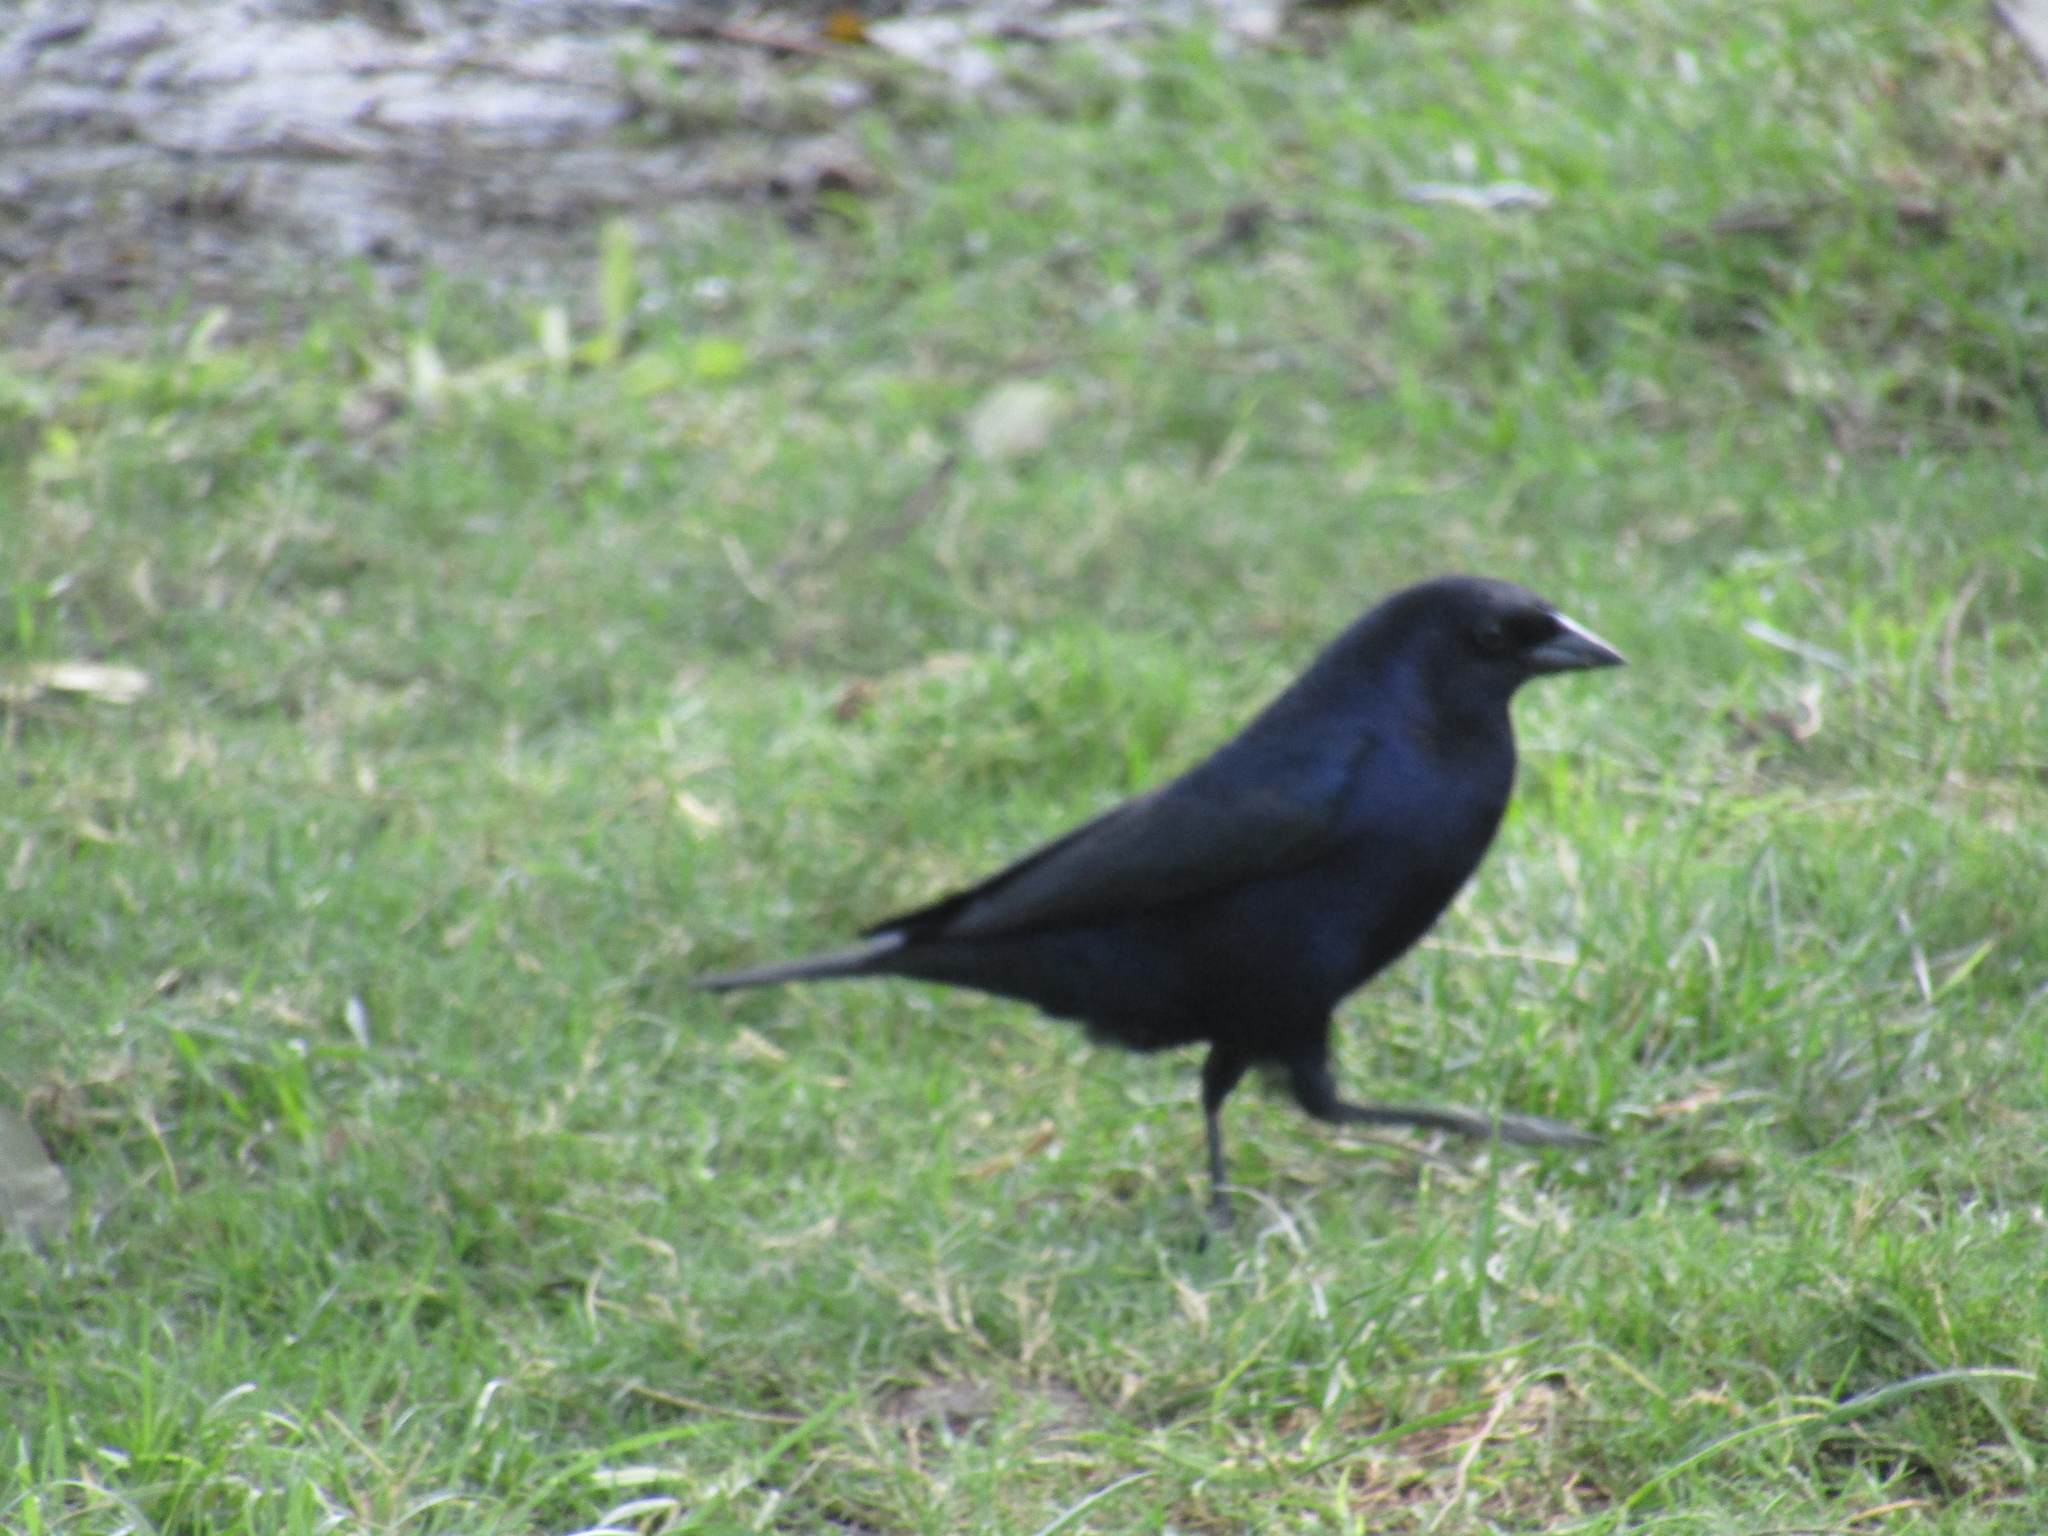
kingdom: Animalia
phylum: Chordata
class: Aves
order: Passeriformes
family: Icteridae
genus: Molothrus
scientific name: Molothrus bonariensis
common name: Shiny cowbird
